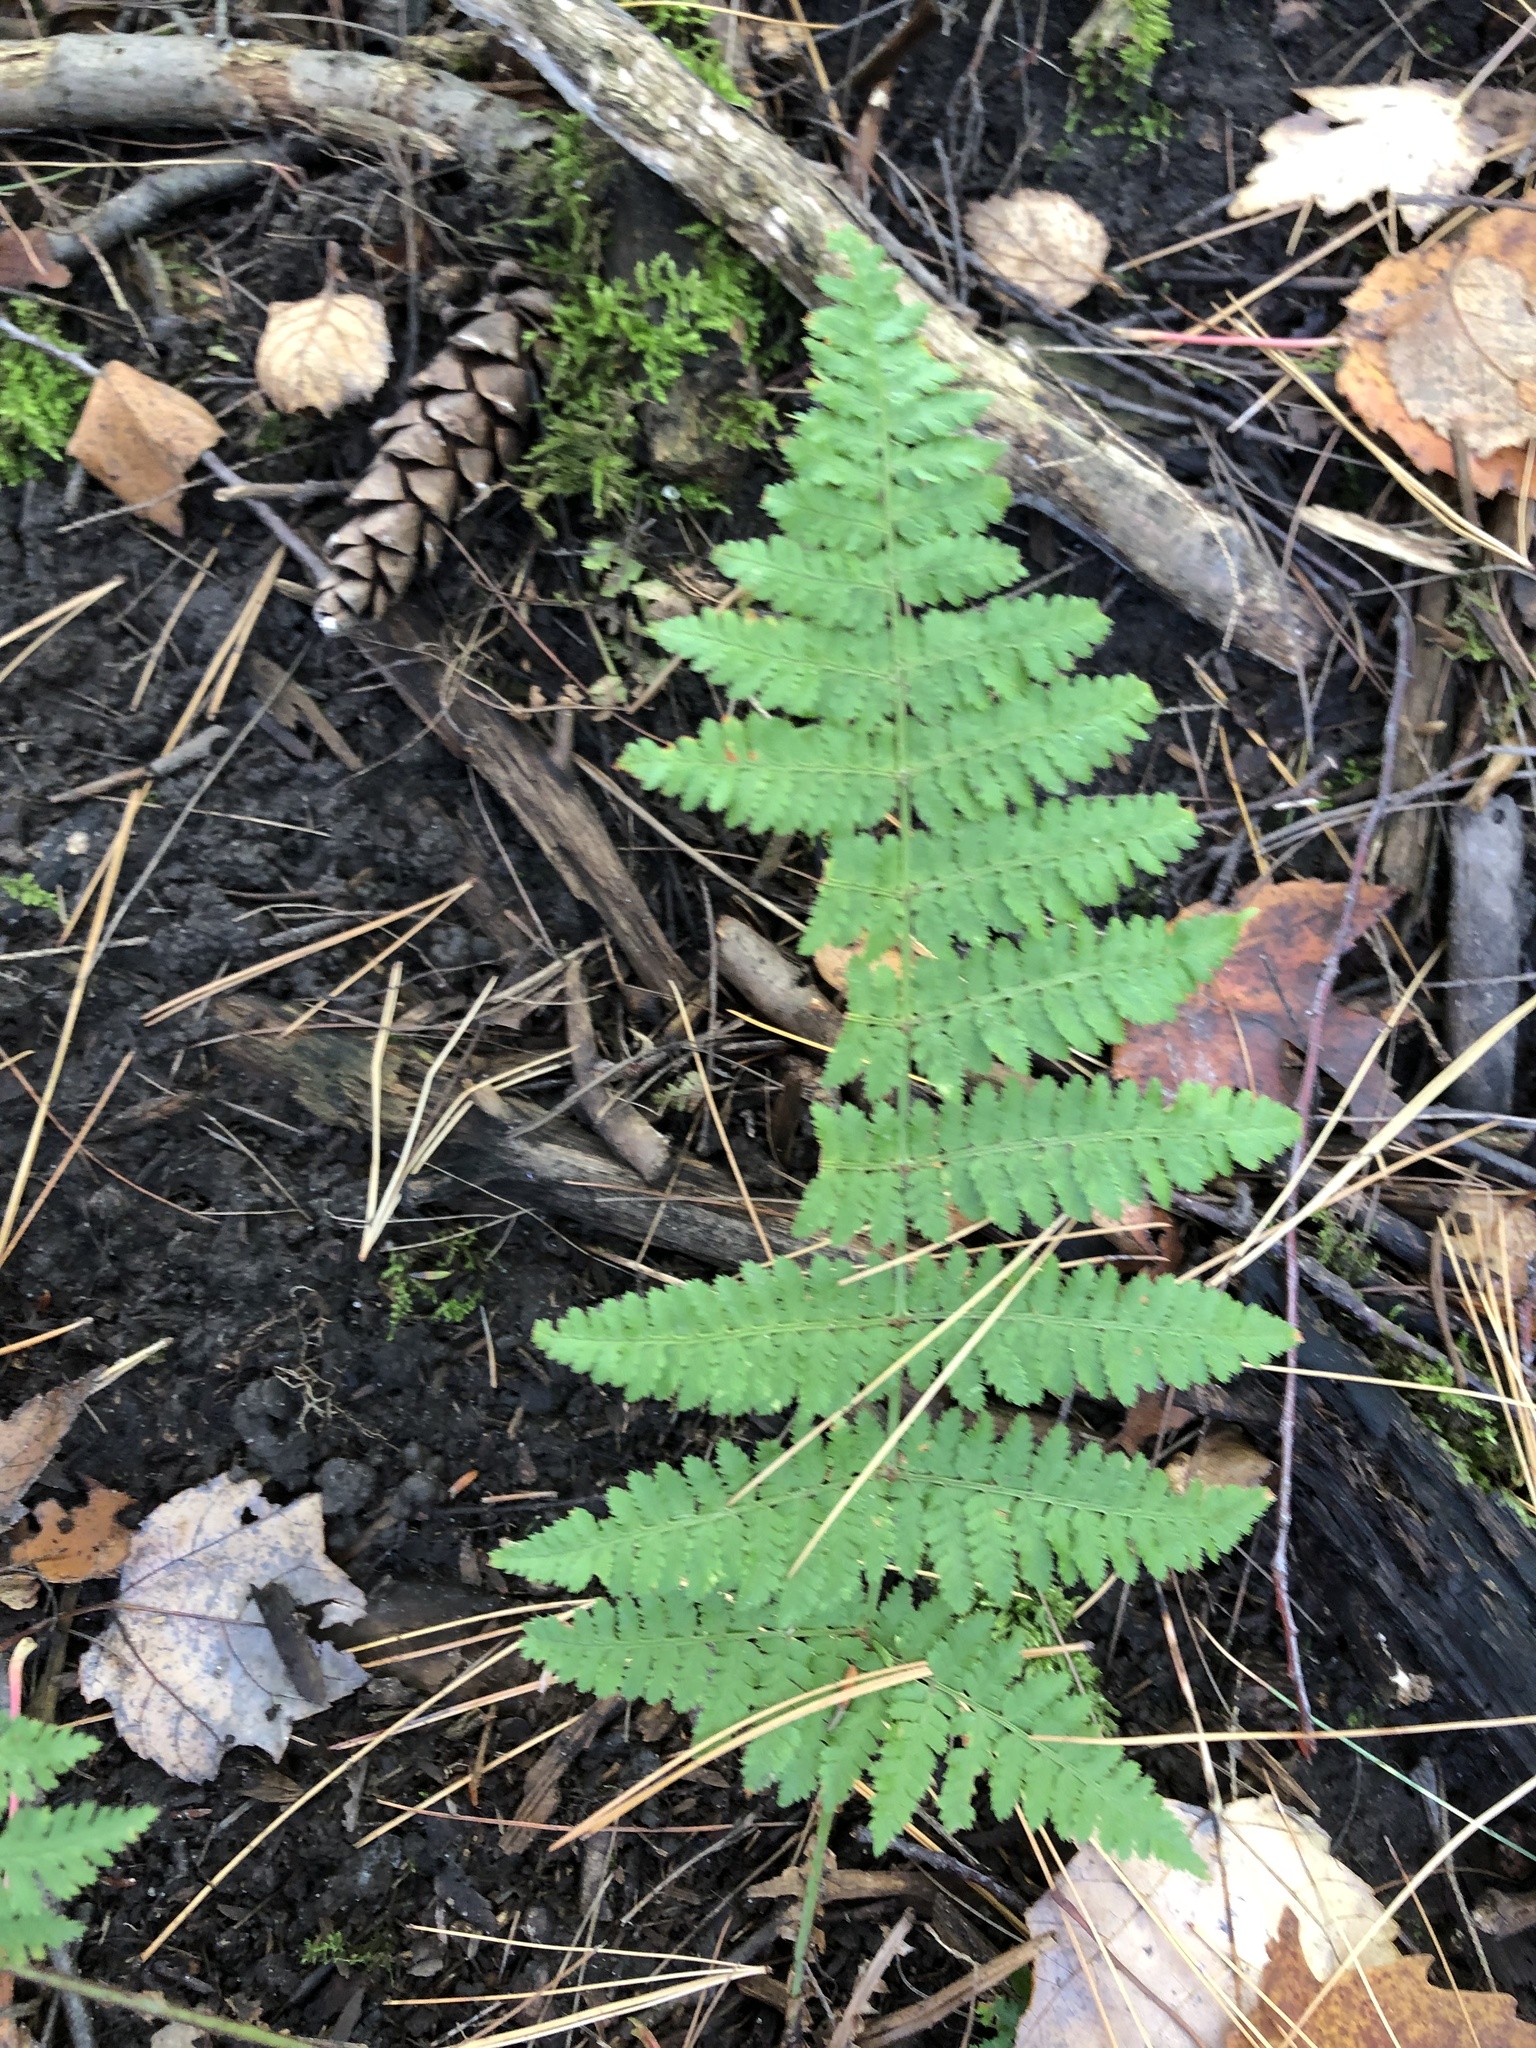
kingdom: Plantae
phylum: Tracheophyta
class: Polypodiopsida
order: Polypodiales
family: Dryopteridaceae
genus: Dryopteris
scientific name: Dryopteris intermedia
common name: Evergreen wood fern
